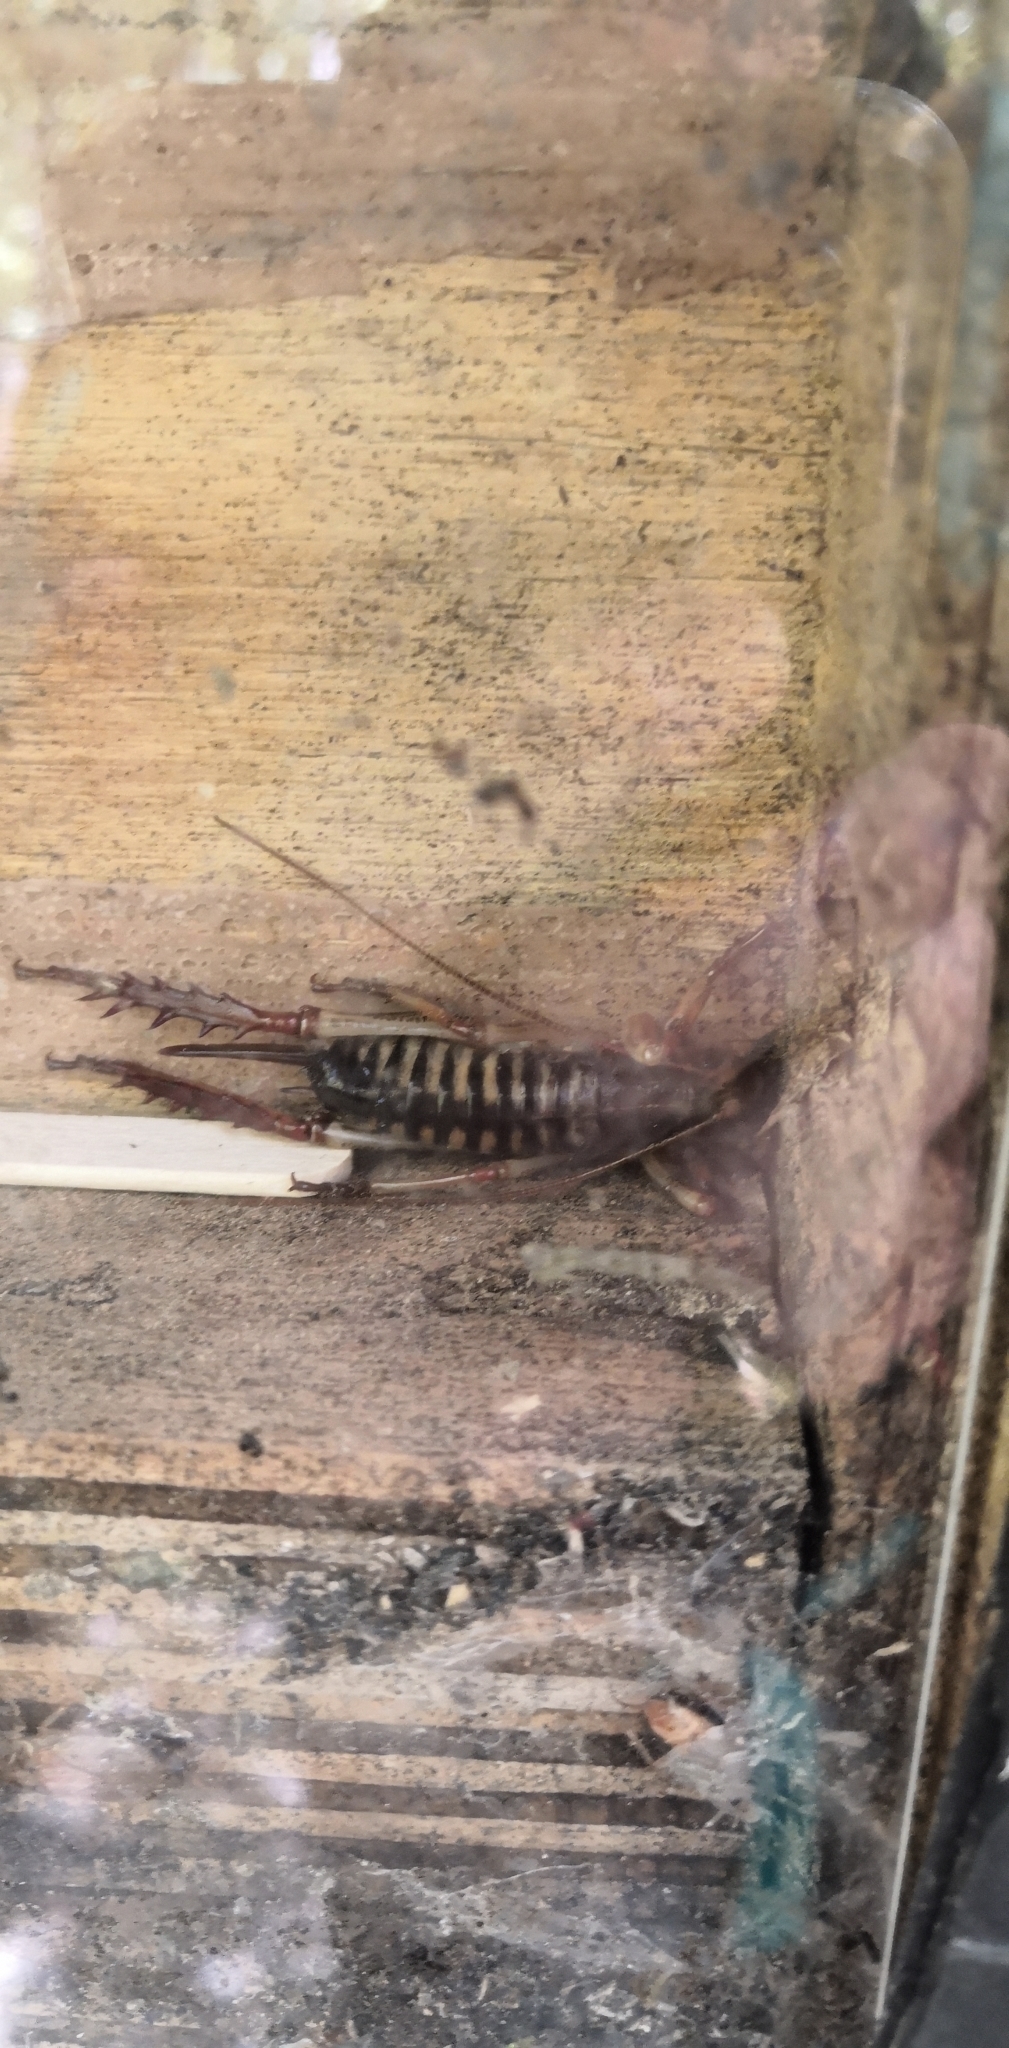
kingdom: Animalia
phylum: Arthropoda
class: Insecta
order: Orthoptera
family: Anostostomatidae
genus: Hemideina
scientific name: Hemideina crassidens
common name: Wellington tree weta
